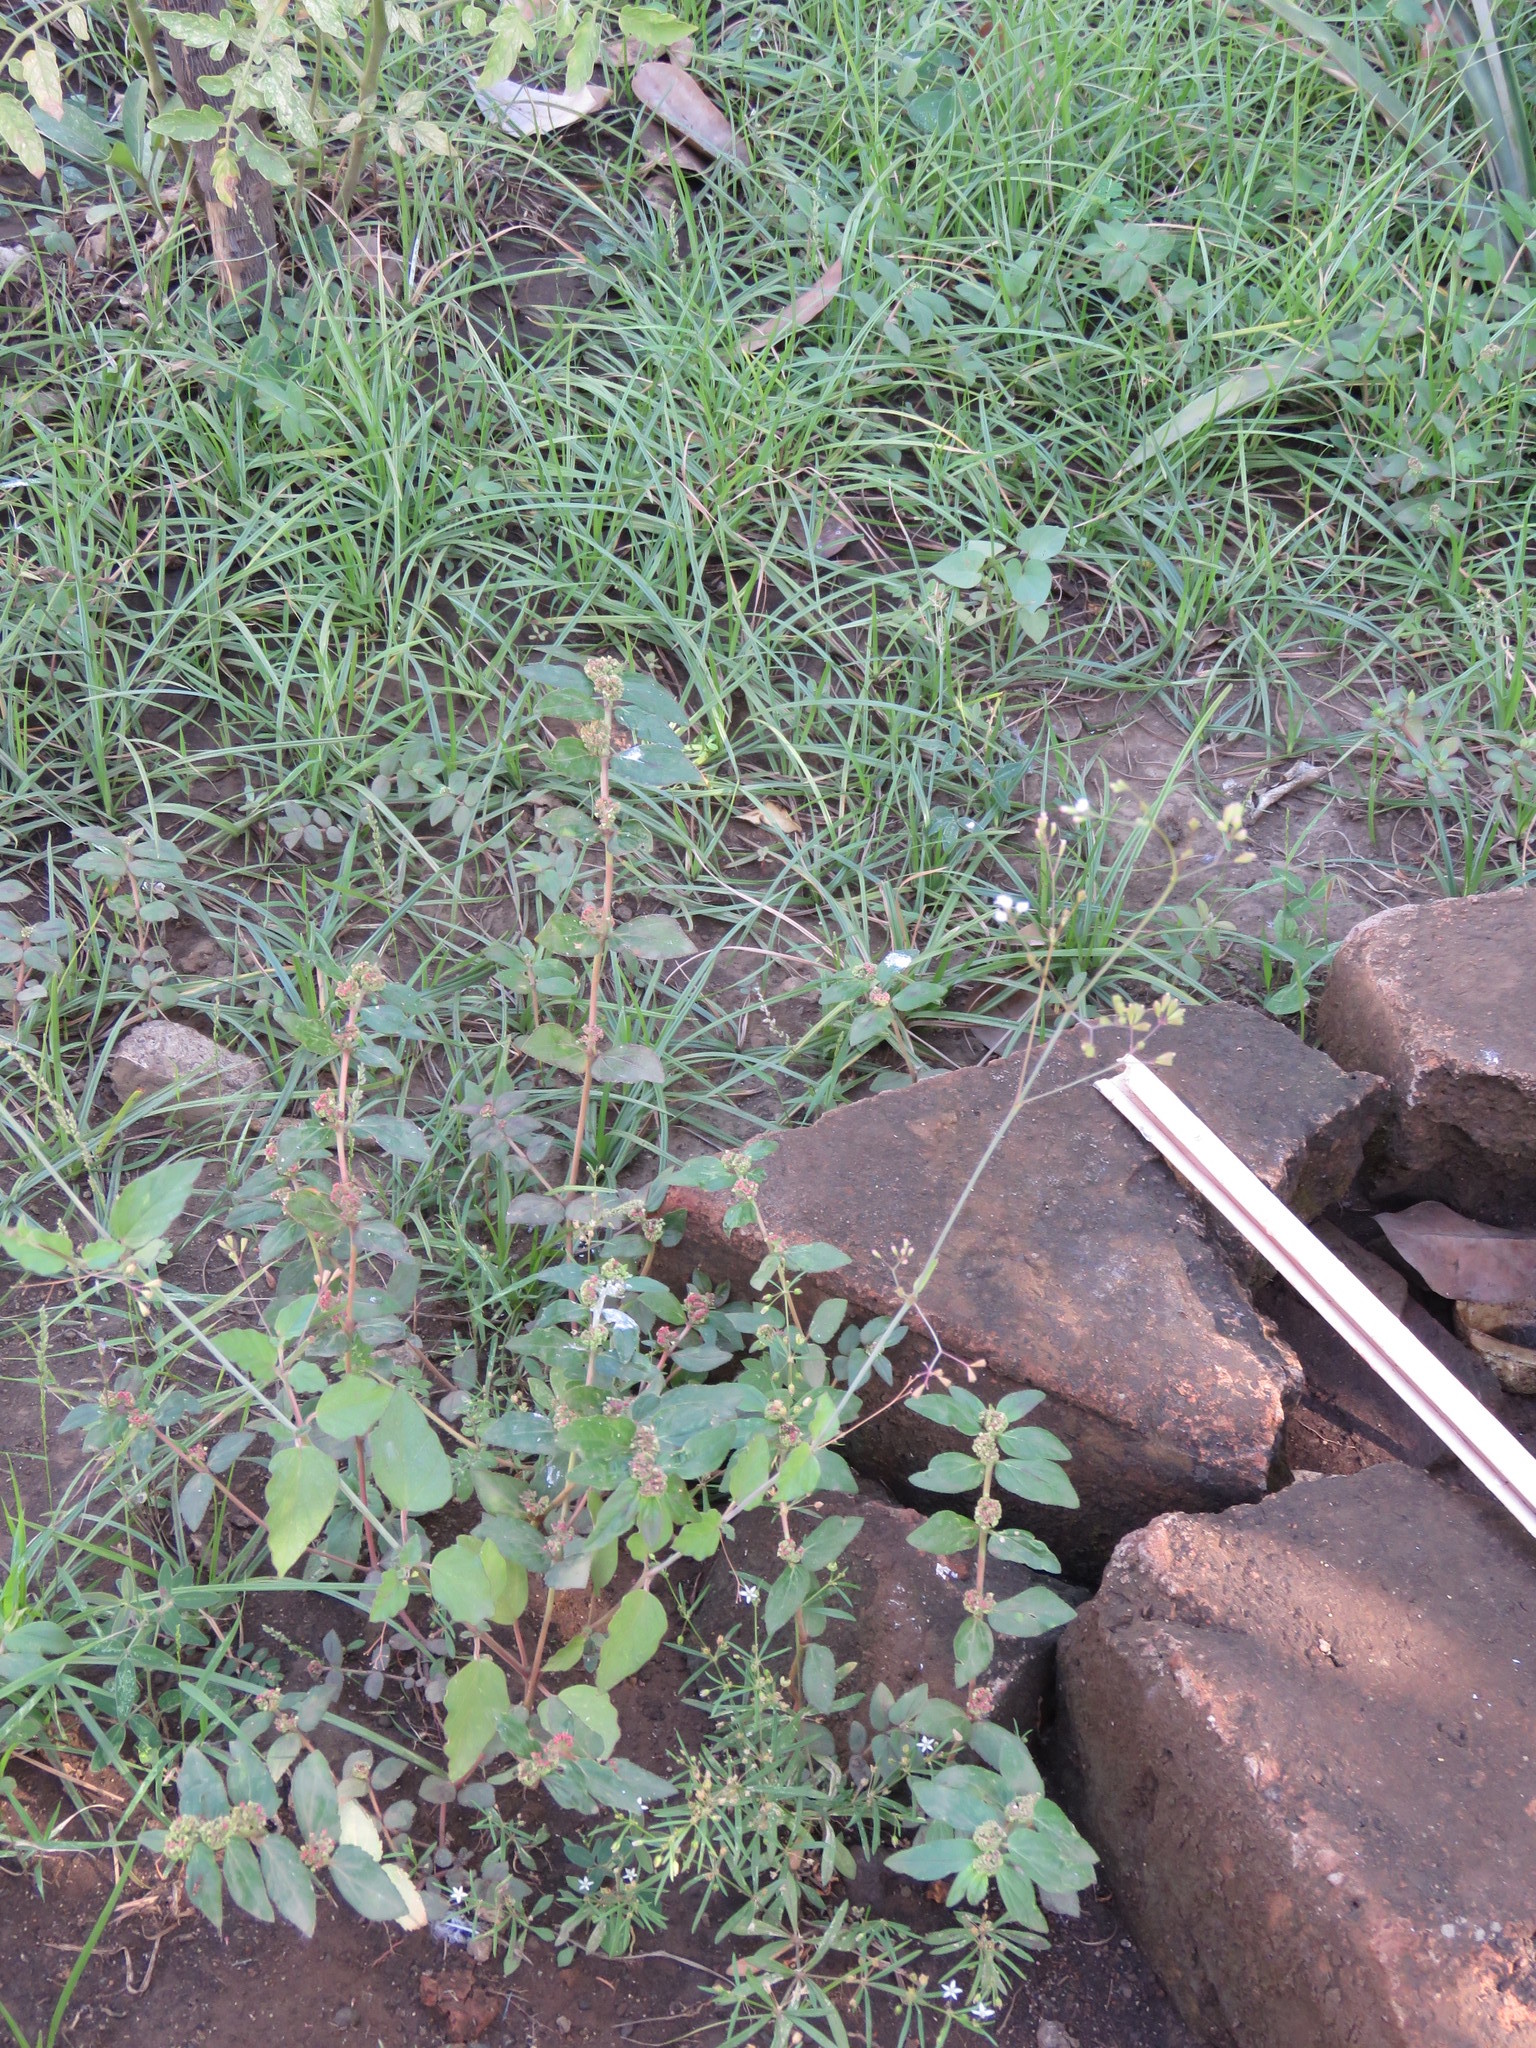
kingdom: Plantae
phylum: Tracheophyta
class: Magnoliopsida
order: Caryophyllales
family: Nyctaginaceae
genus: Boerhavia
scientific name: Boerhavia erecta
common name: Erect spiderling
